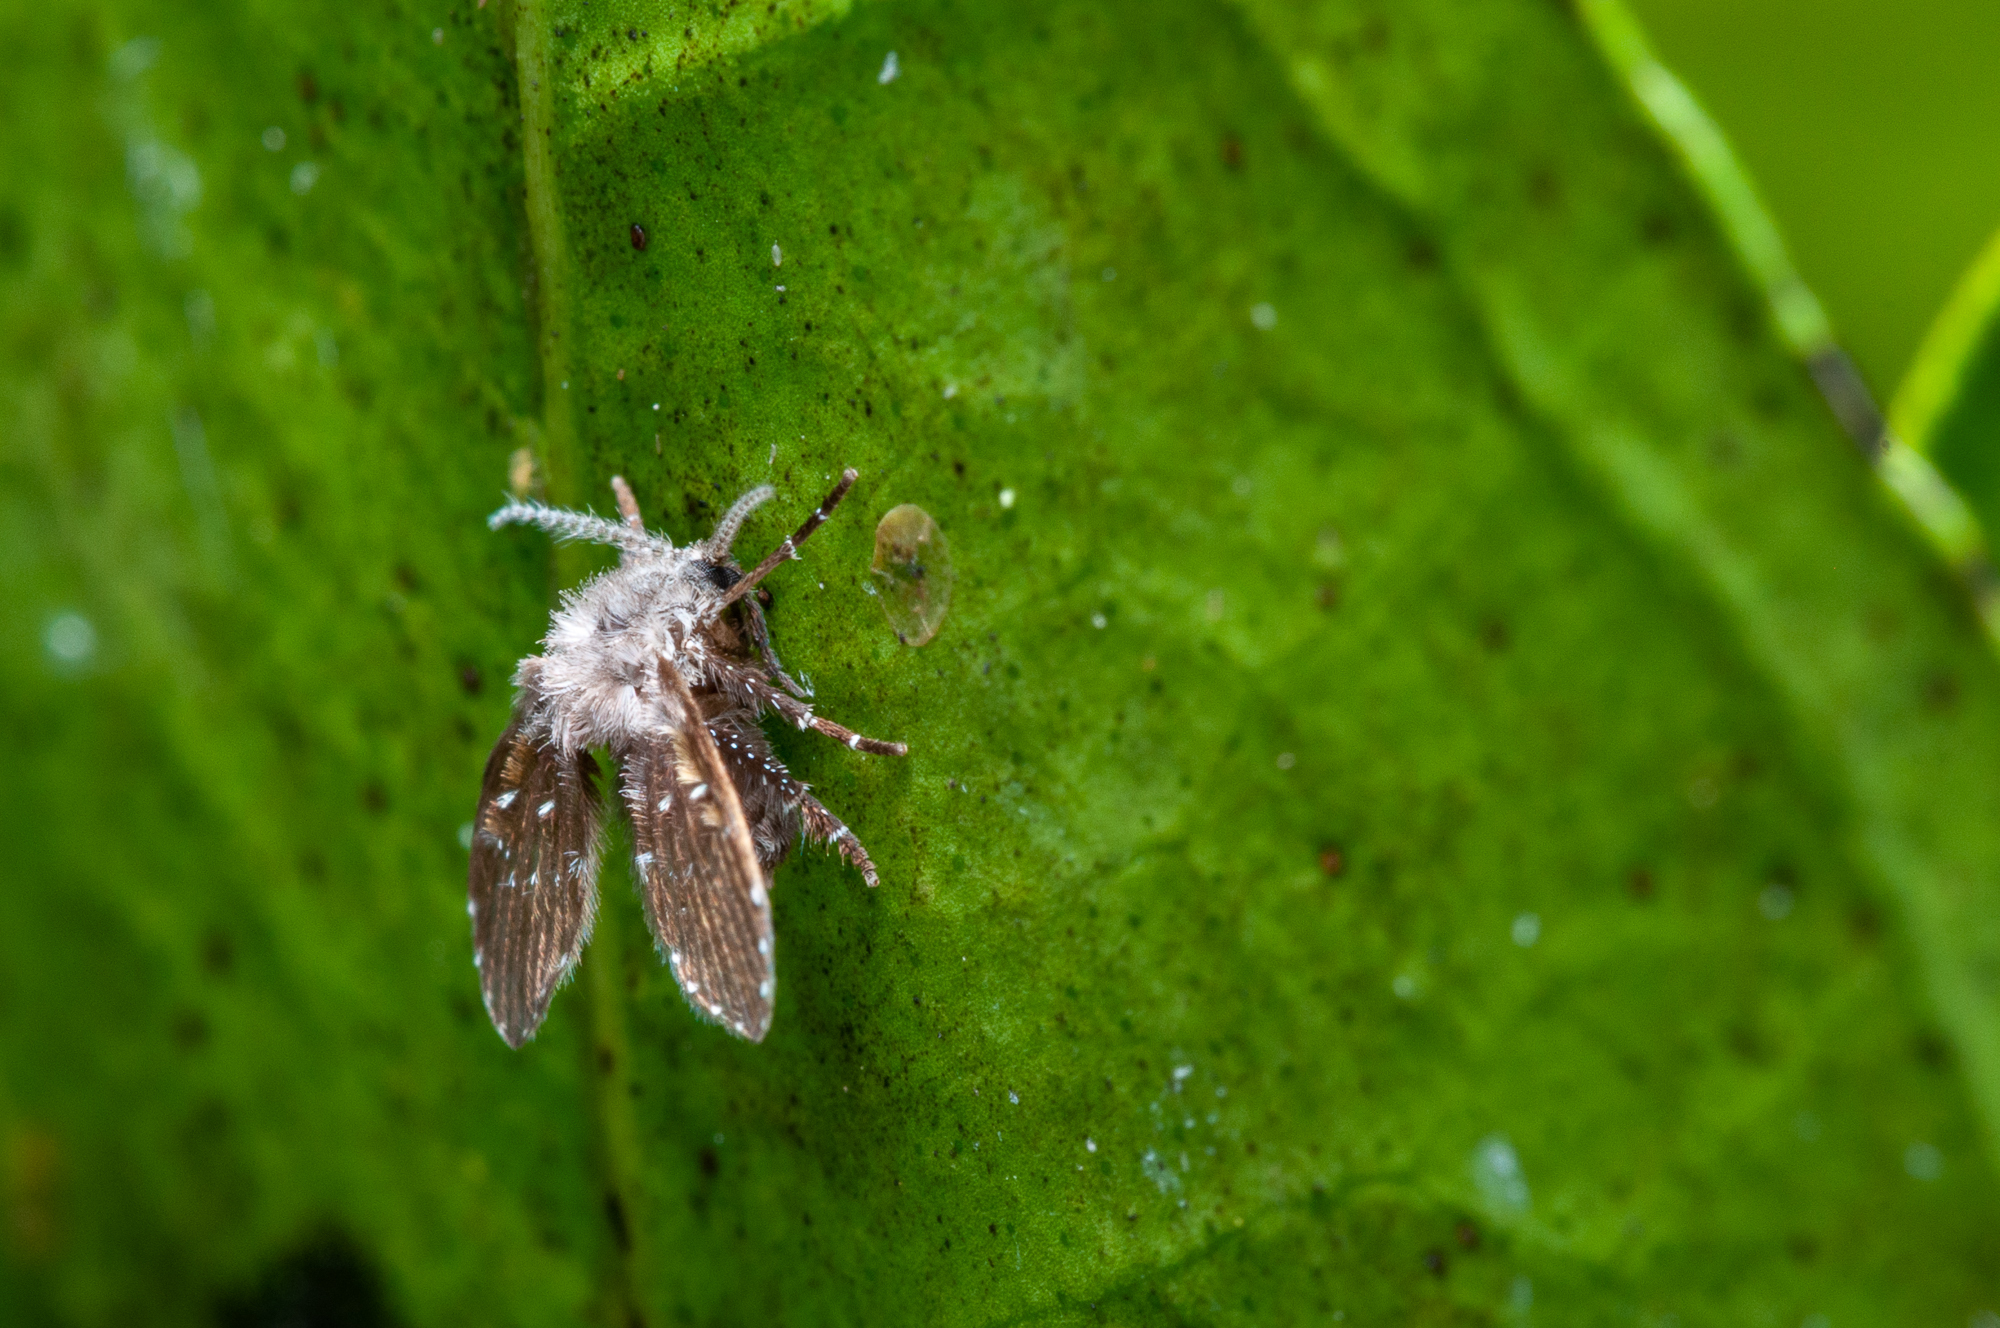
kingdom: Animalia
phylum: Arthropoda
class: Insecta
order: Diptera
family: Psychodidae
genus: Clogmia
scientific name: Clogmia albipunctatus
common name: White-spotted moth fly
